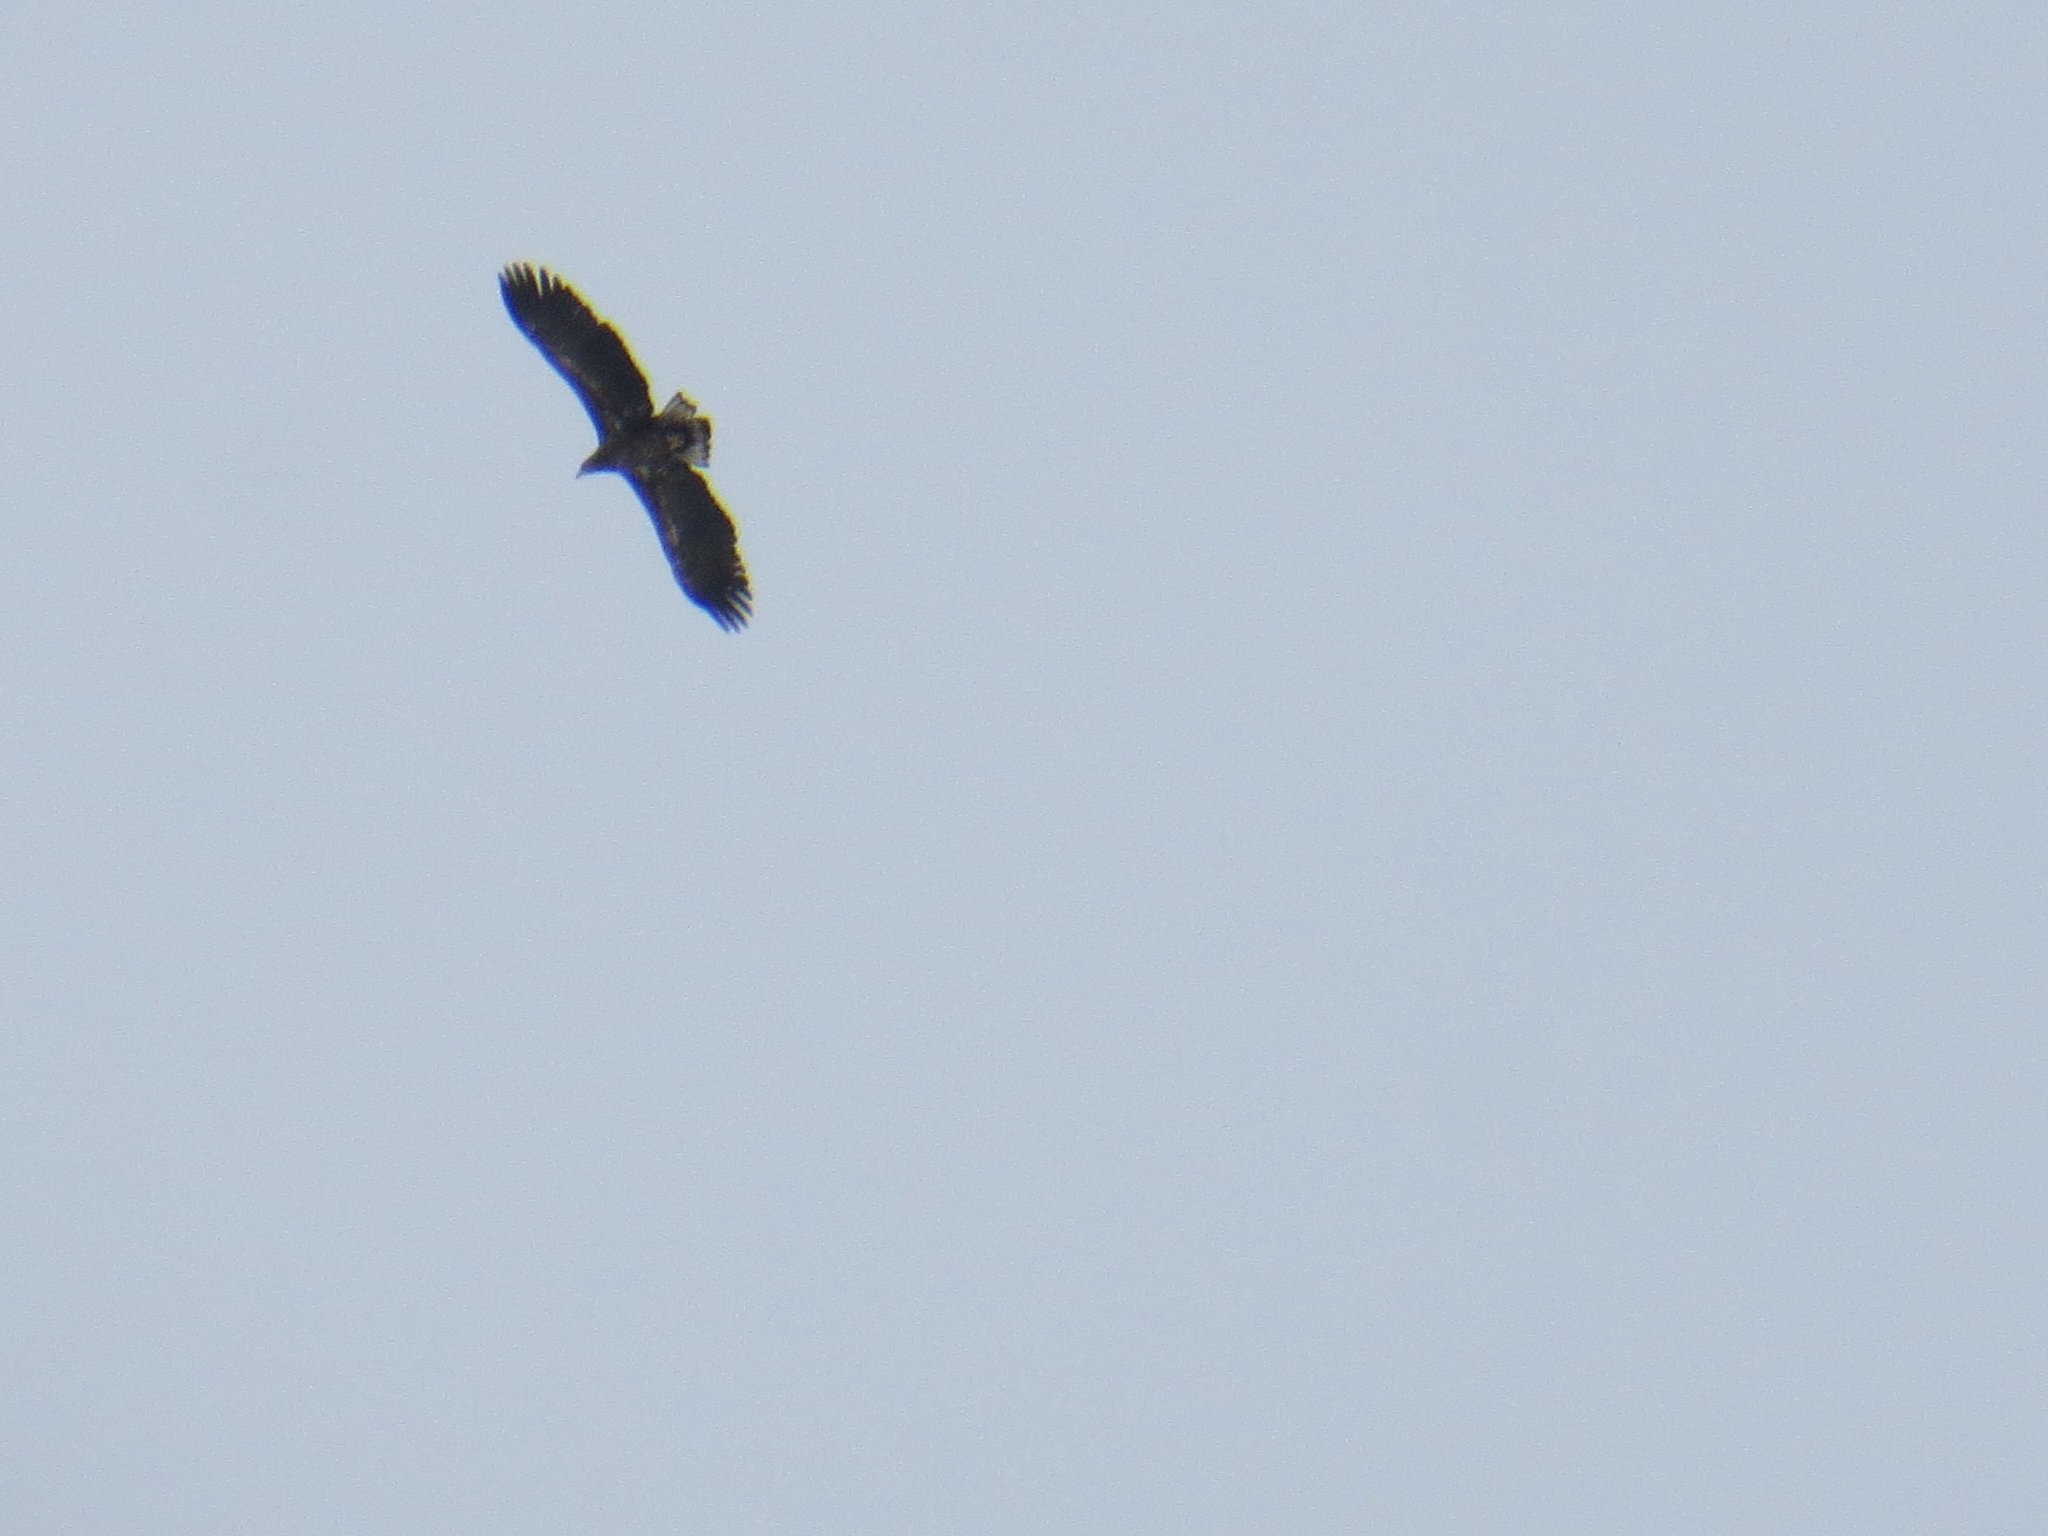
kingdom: Animalia
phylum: Chordata
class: Aves
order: Accipitriformes
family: Accipitridae
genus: Haliaeetus
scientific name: Haliaeetus albicilla
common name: White-tailed eagle
